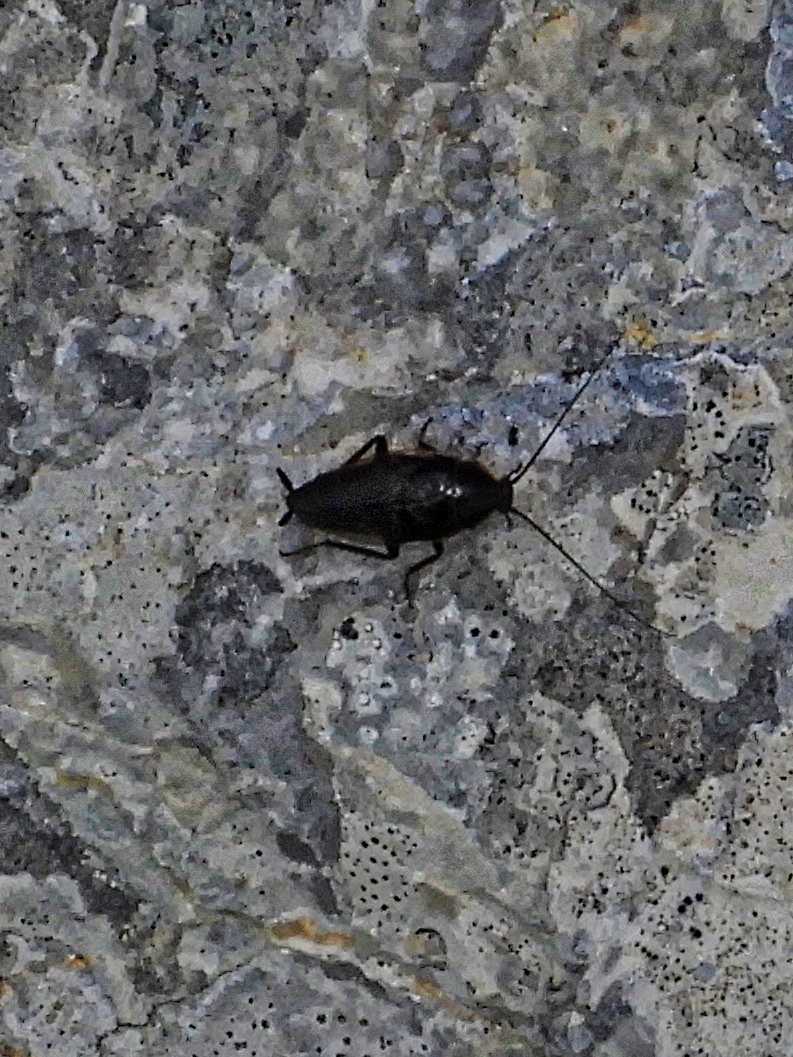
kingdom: Animalia
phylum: Arthropoda
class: Insecta
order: Blattodea
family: Ectobiidae
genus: Ectobius
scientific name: Ectobius
